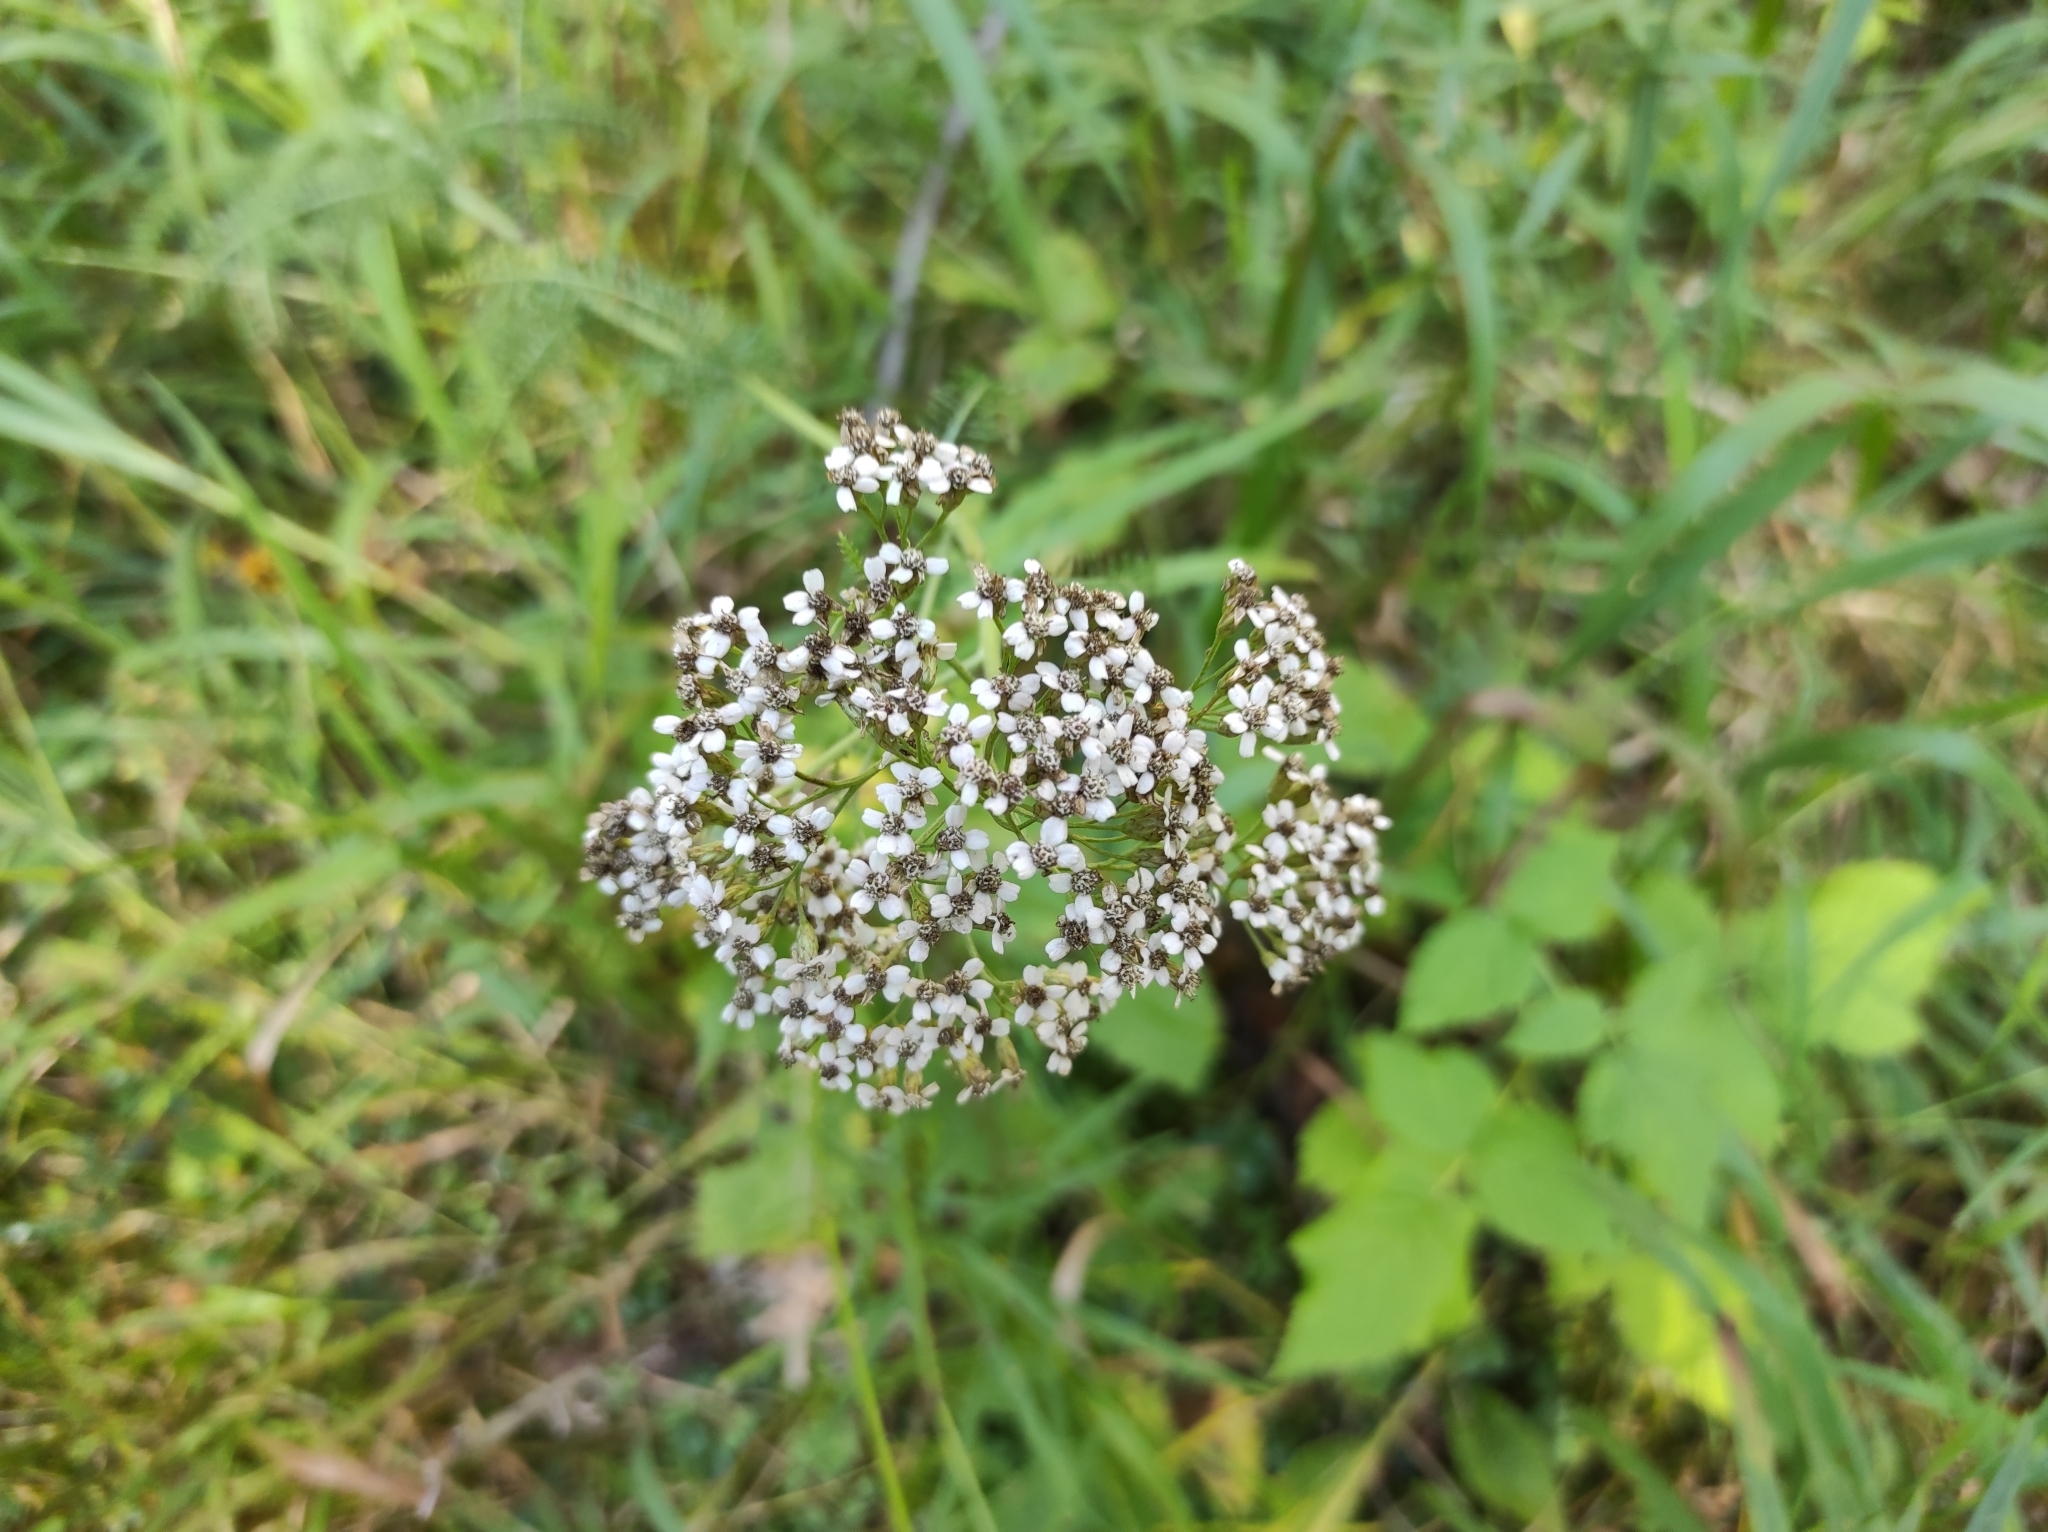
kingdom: Plantae
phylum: Tracheophyta
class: Magnoliopsida
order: Asterales
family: Asteraceae
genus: Achillea
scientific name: Achillea millefolium
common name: Yarrow
